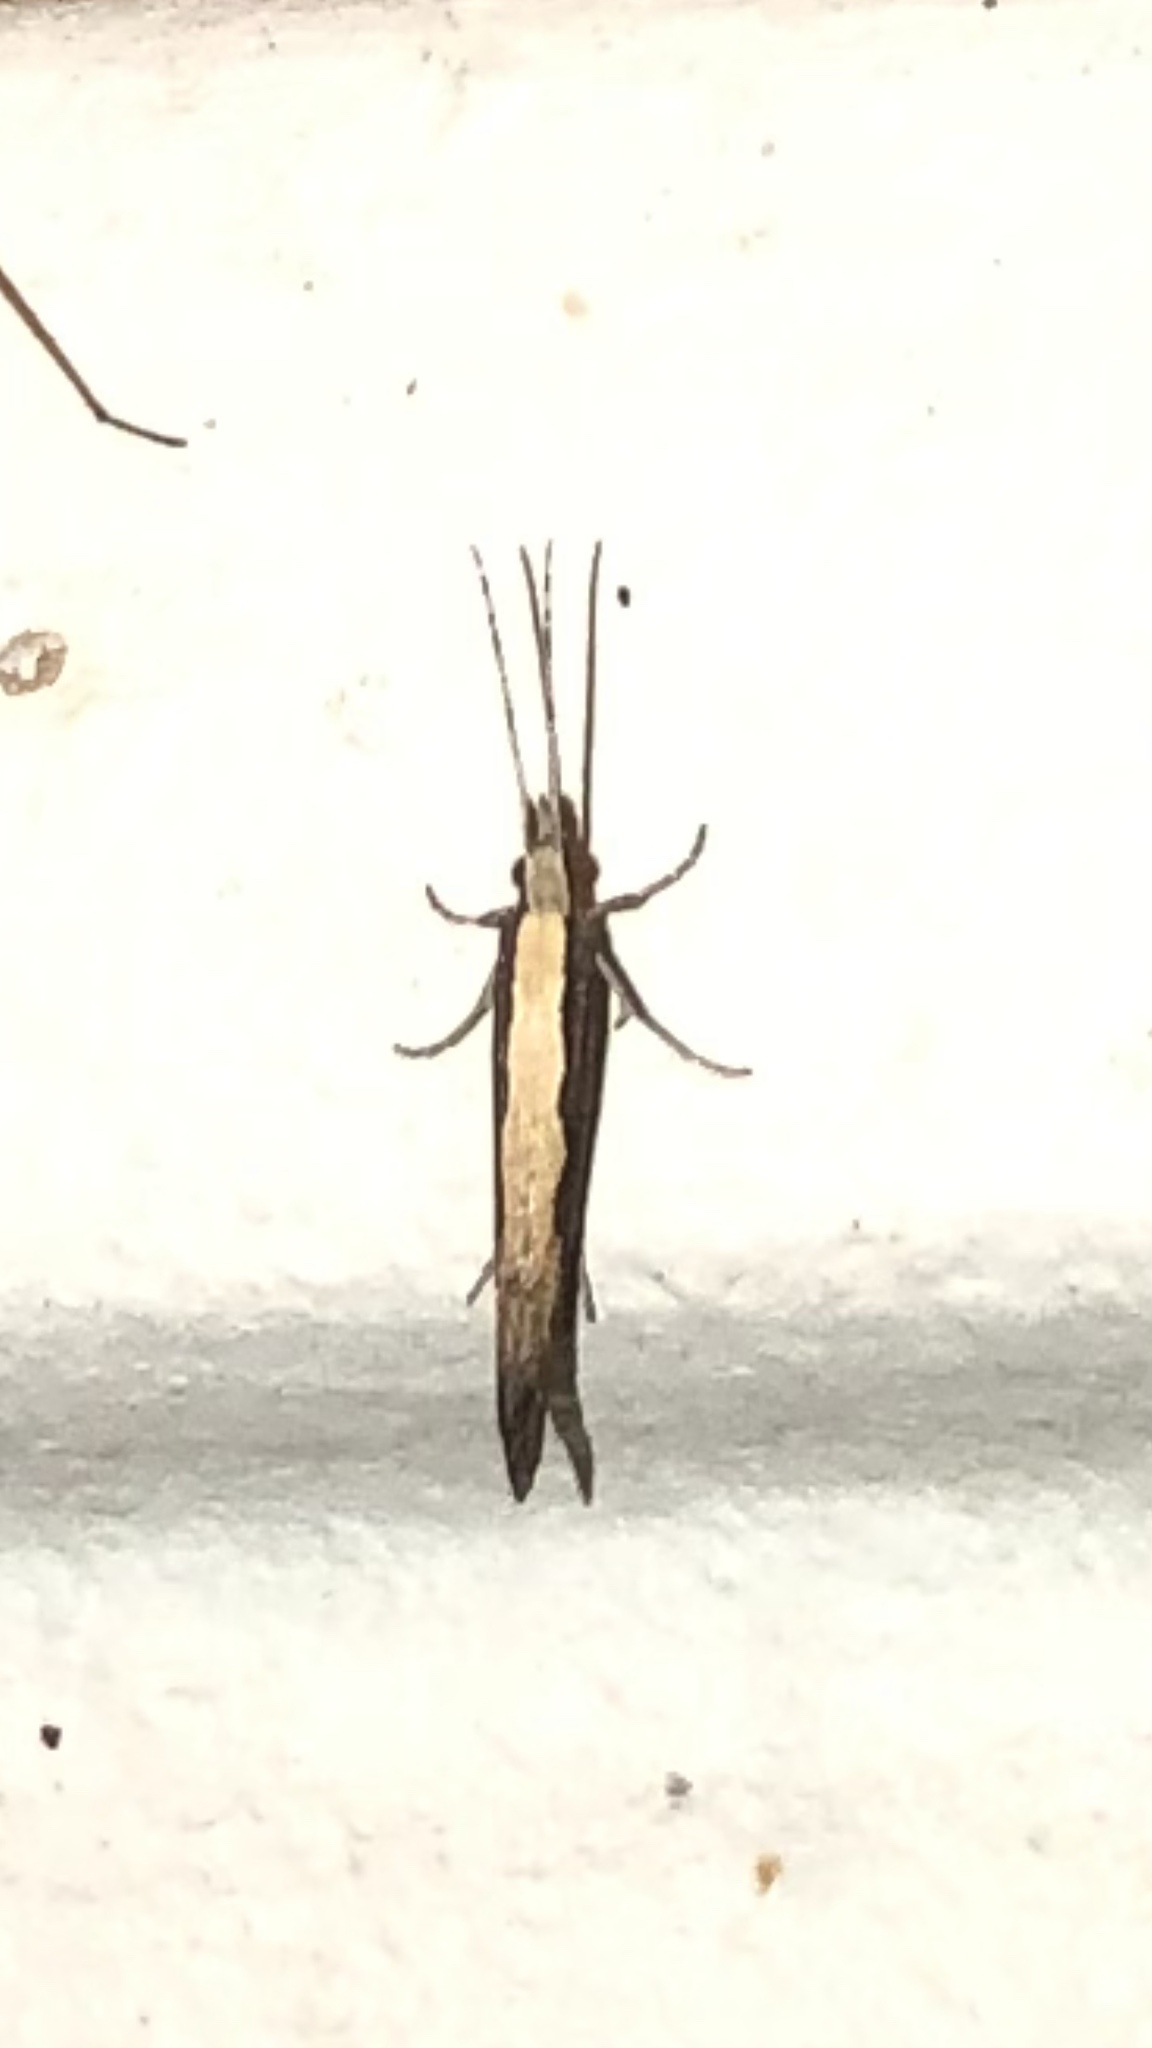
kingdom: Animalia
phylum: Arthropoda
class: Insecta
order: Lepidoptera
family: Plutellidae
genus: Plutella
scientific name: Plutella xylostella
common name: Diamond-back moth
